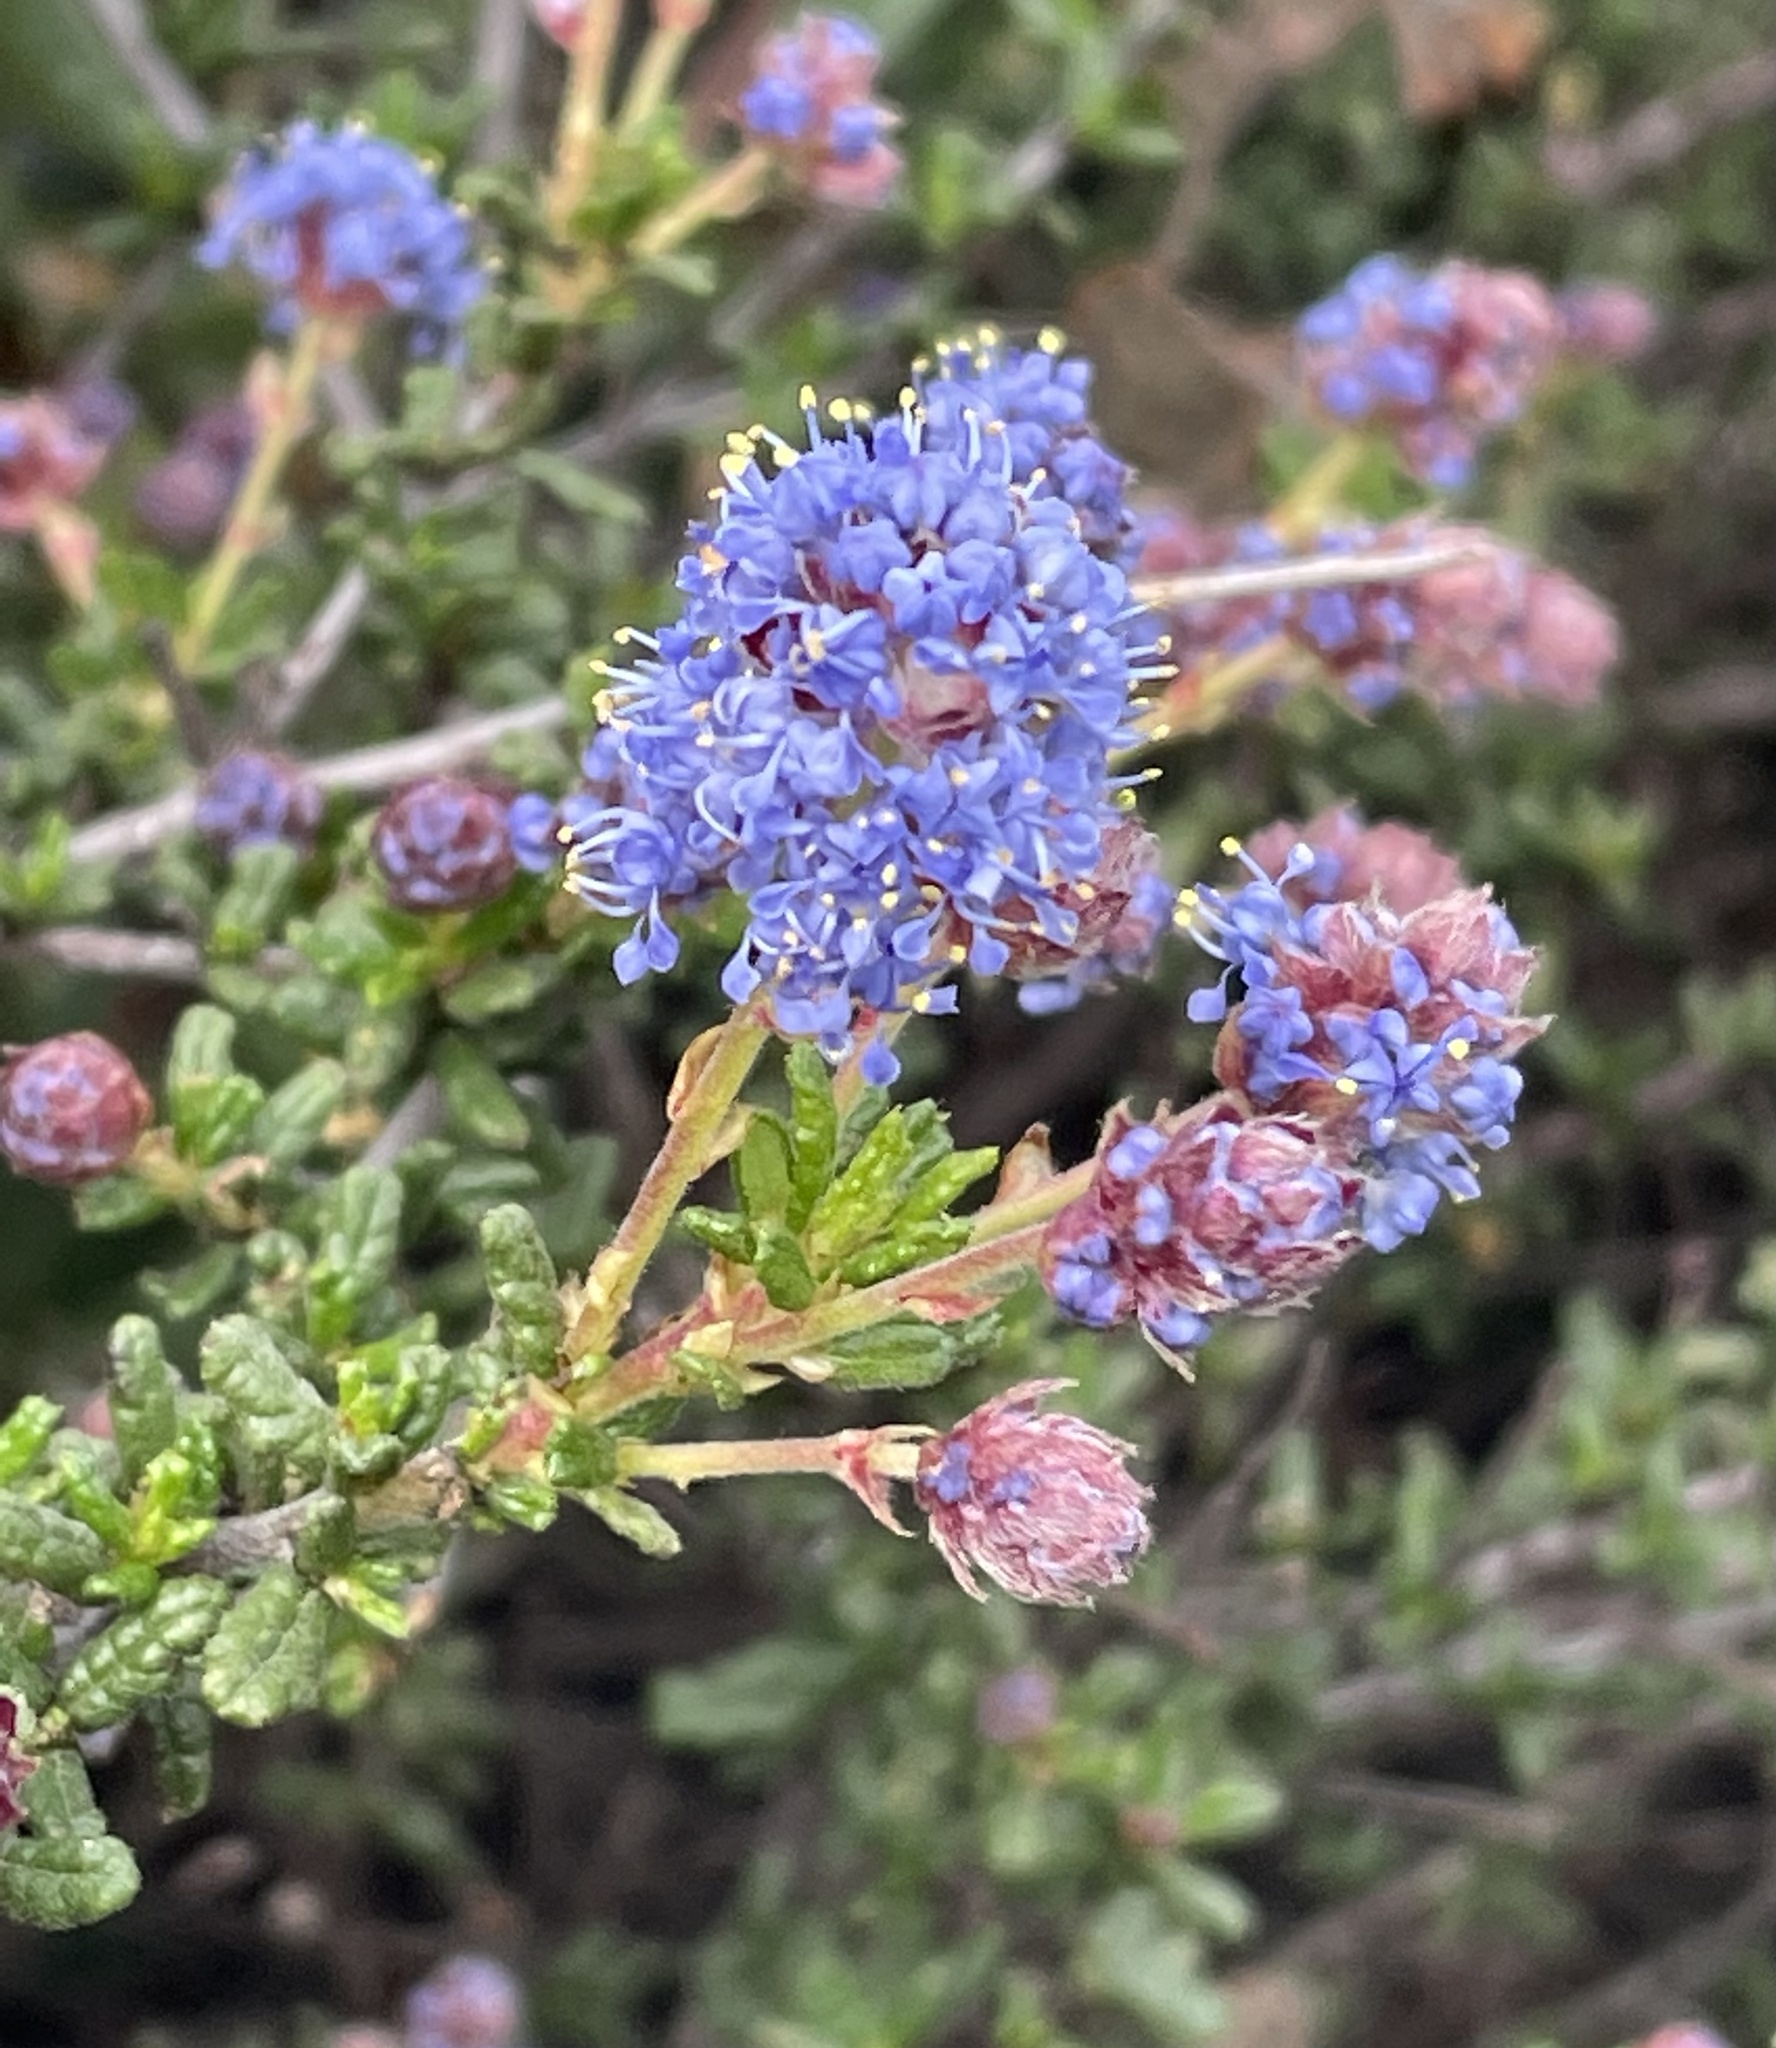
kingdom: Plantae
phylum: Tracheophyta
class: Magnoliopsida
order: Rosales
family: Rhamnaceae
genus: Ceanothus
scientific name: Ceanothus dentatus
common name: Crop-leaf ceanothus
